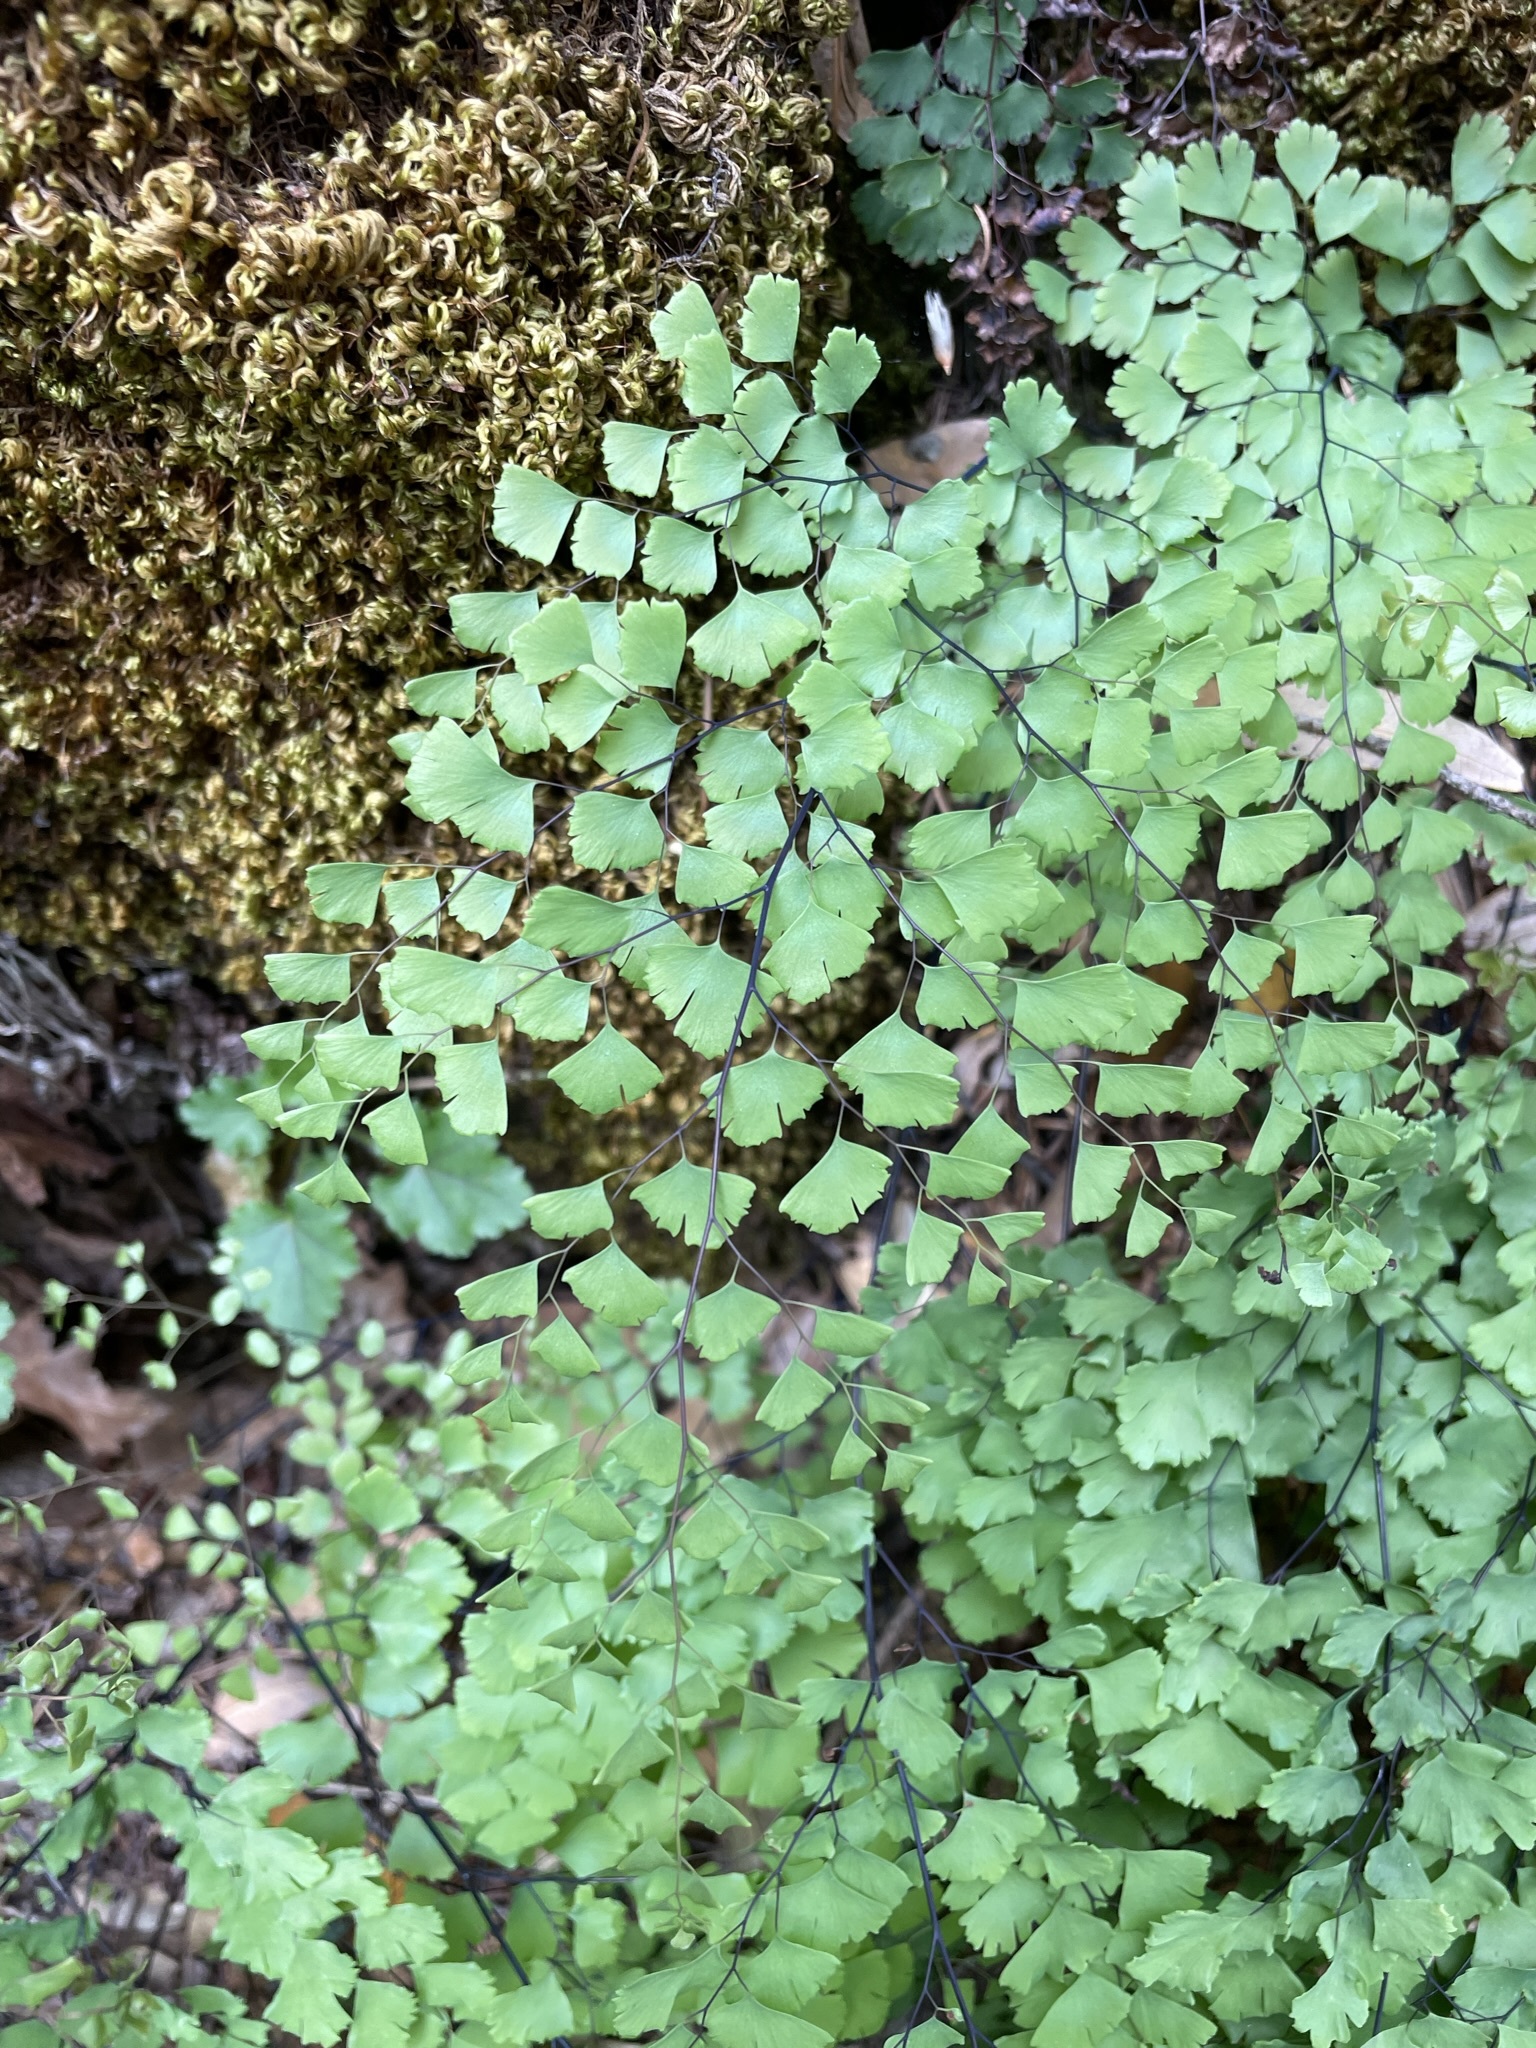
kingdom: Plantae
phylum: Tracheophyta
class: Polypodiopsida
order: Polypodiales
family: Pteridaceae
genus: Adiantum
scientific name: Adiantum shastense
